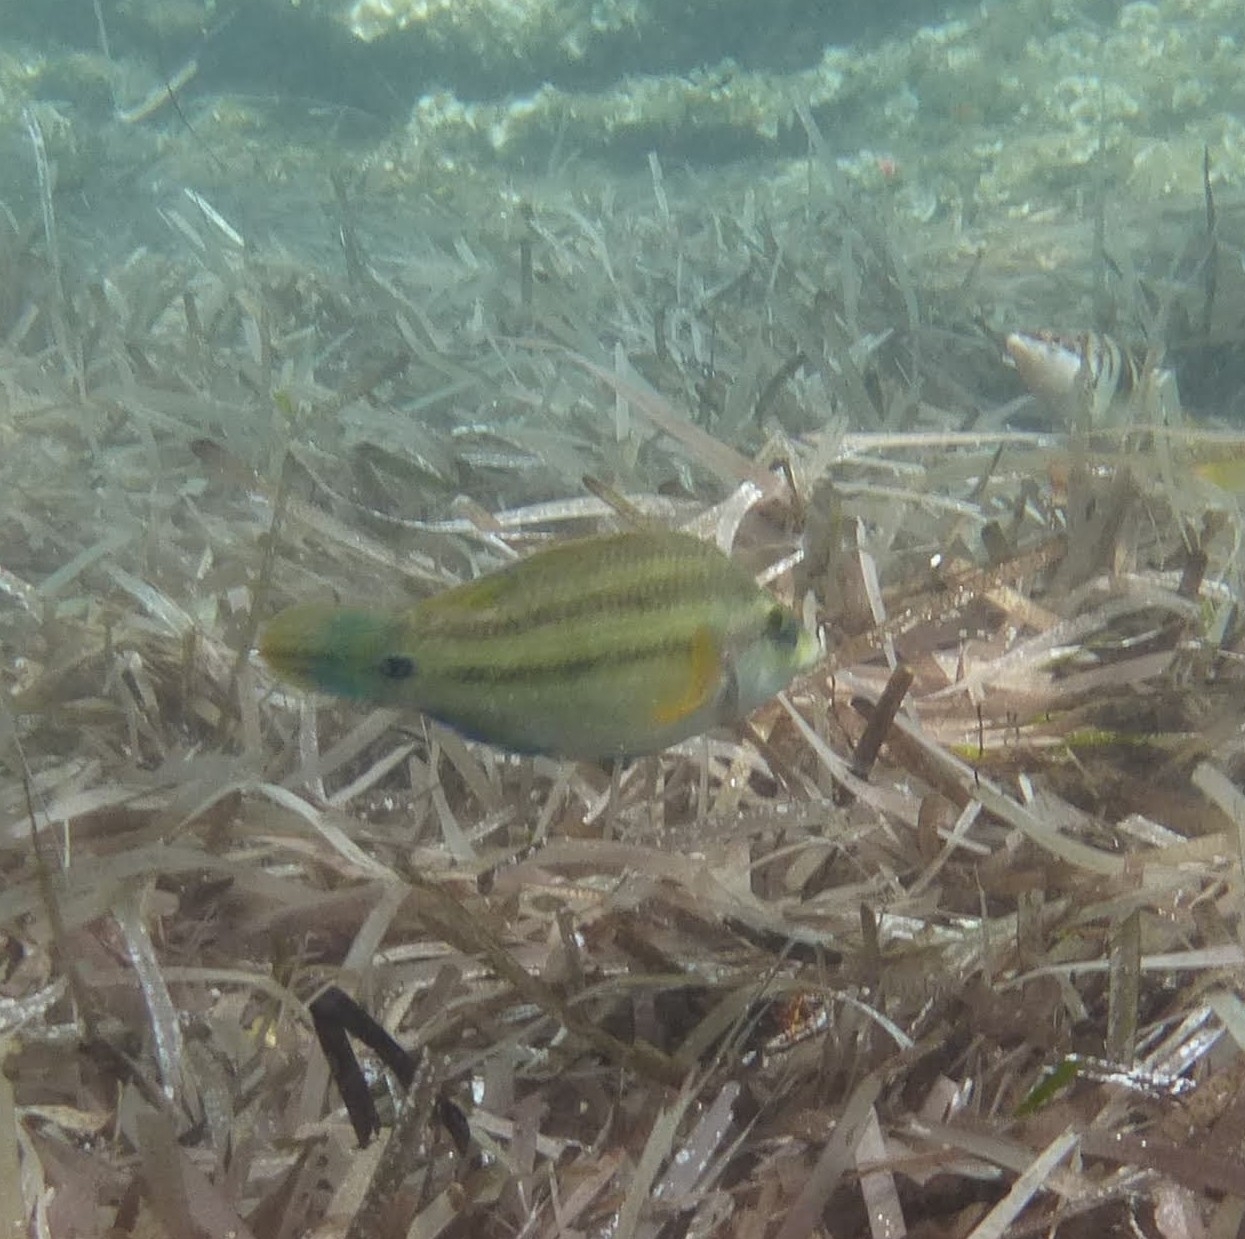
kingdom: Animalia
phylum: Chordata
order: Perciformes
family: Labridae
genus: Symphodus
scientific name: Symphodus tinca
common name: Peacock wrasse
